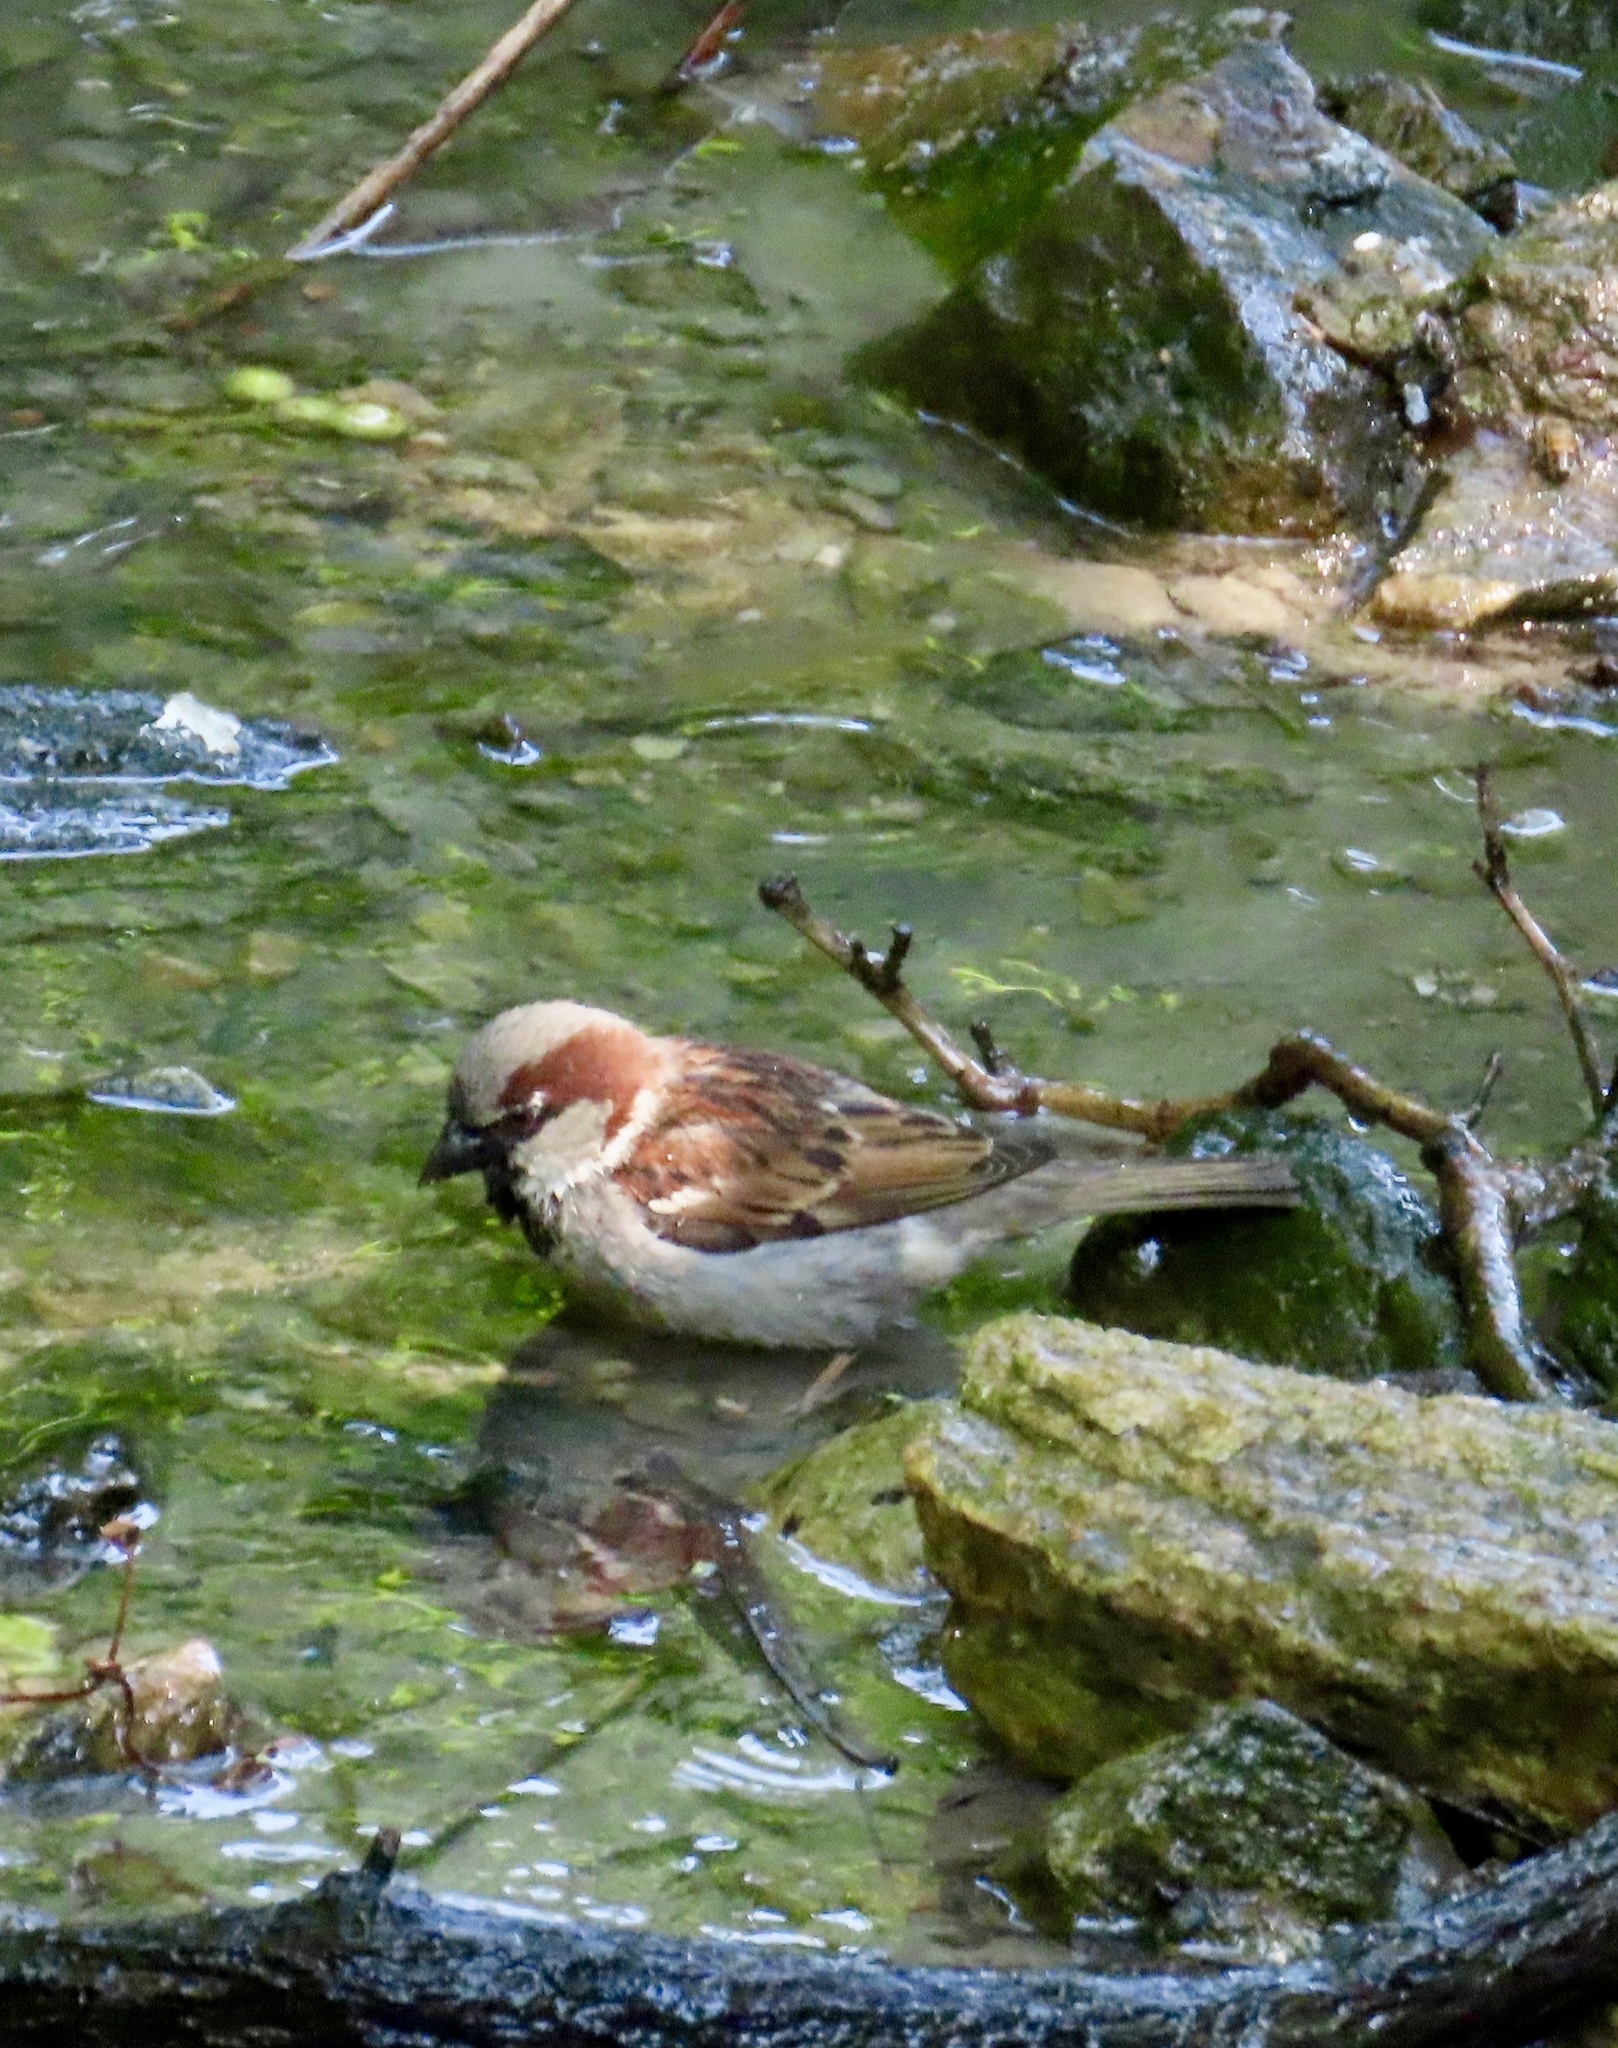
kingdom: Animalia
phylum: Chordata
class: Aves
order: Passeriformes
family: Passeridae
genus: Passer
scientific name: Passer domesticus
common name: House sparrow
